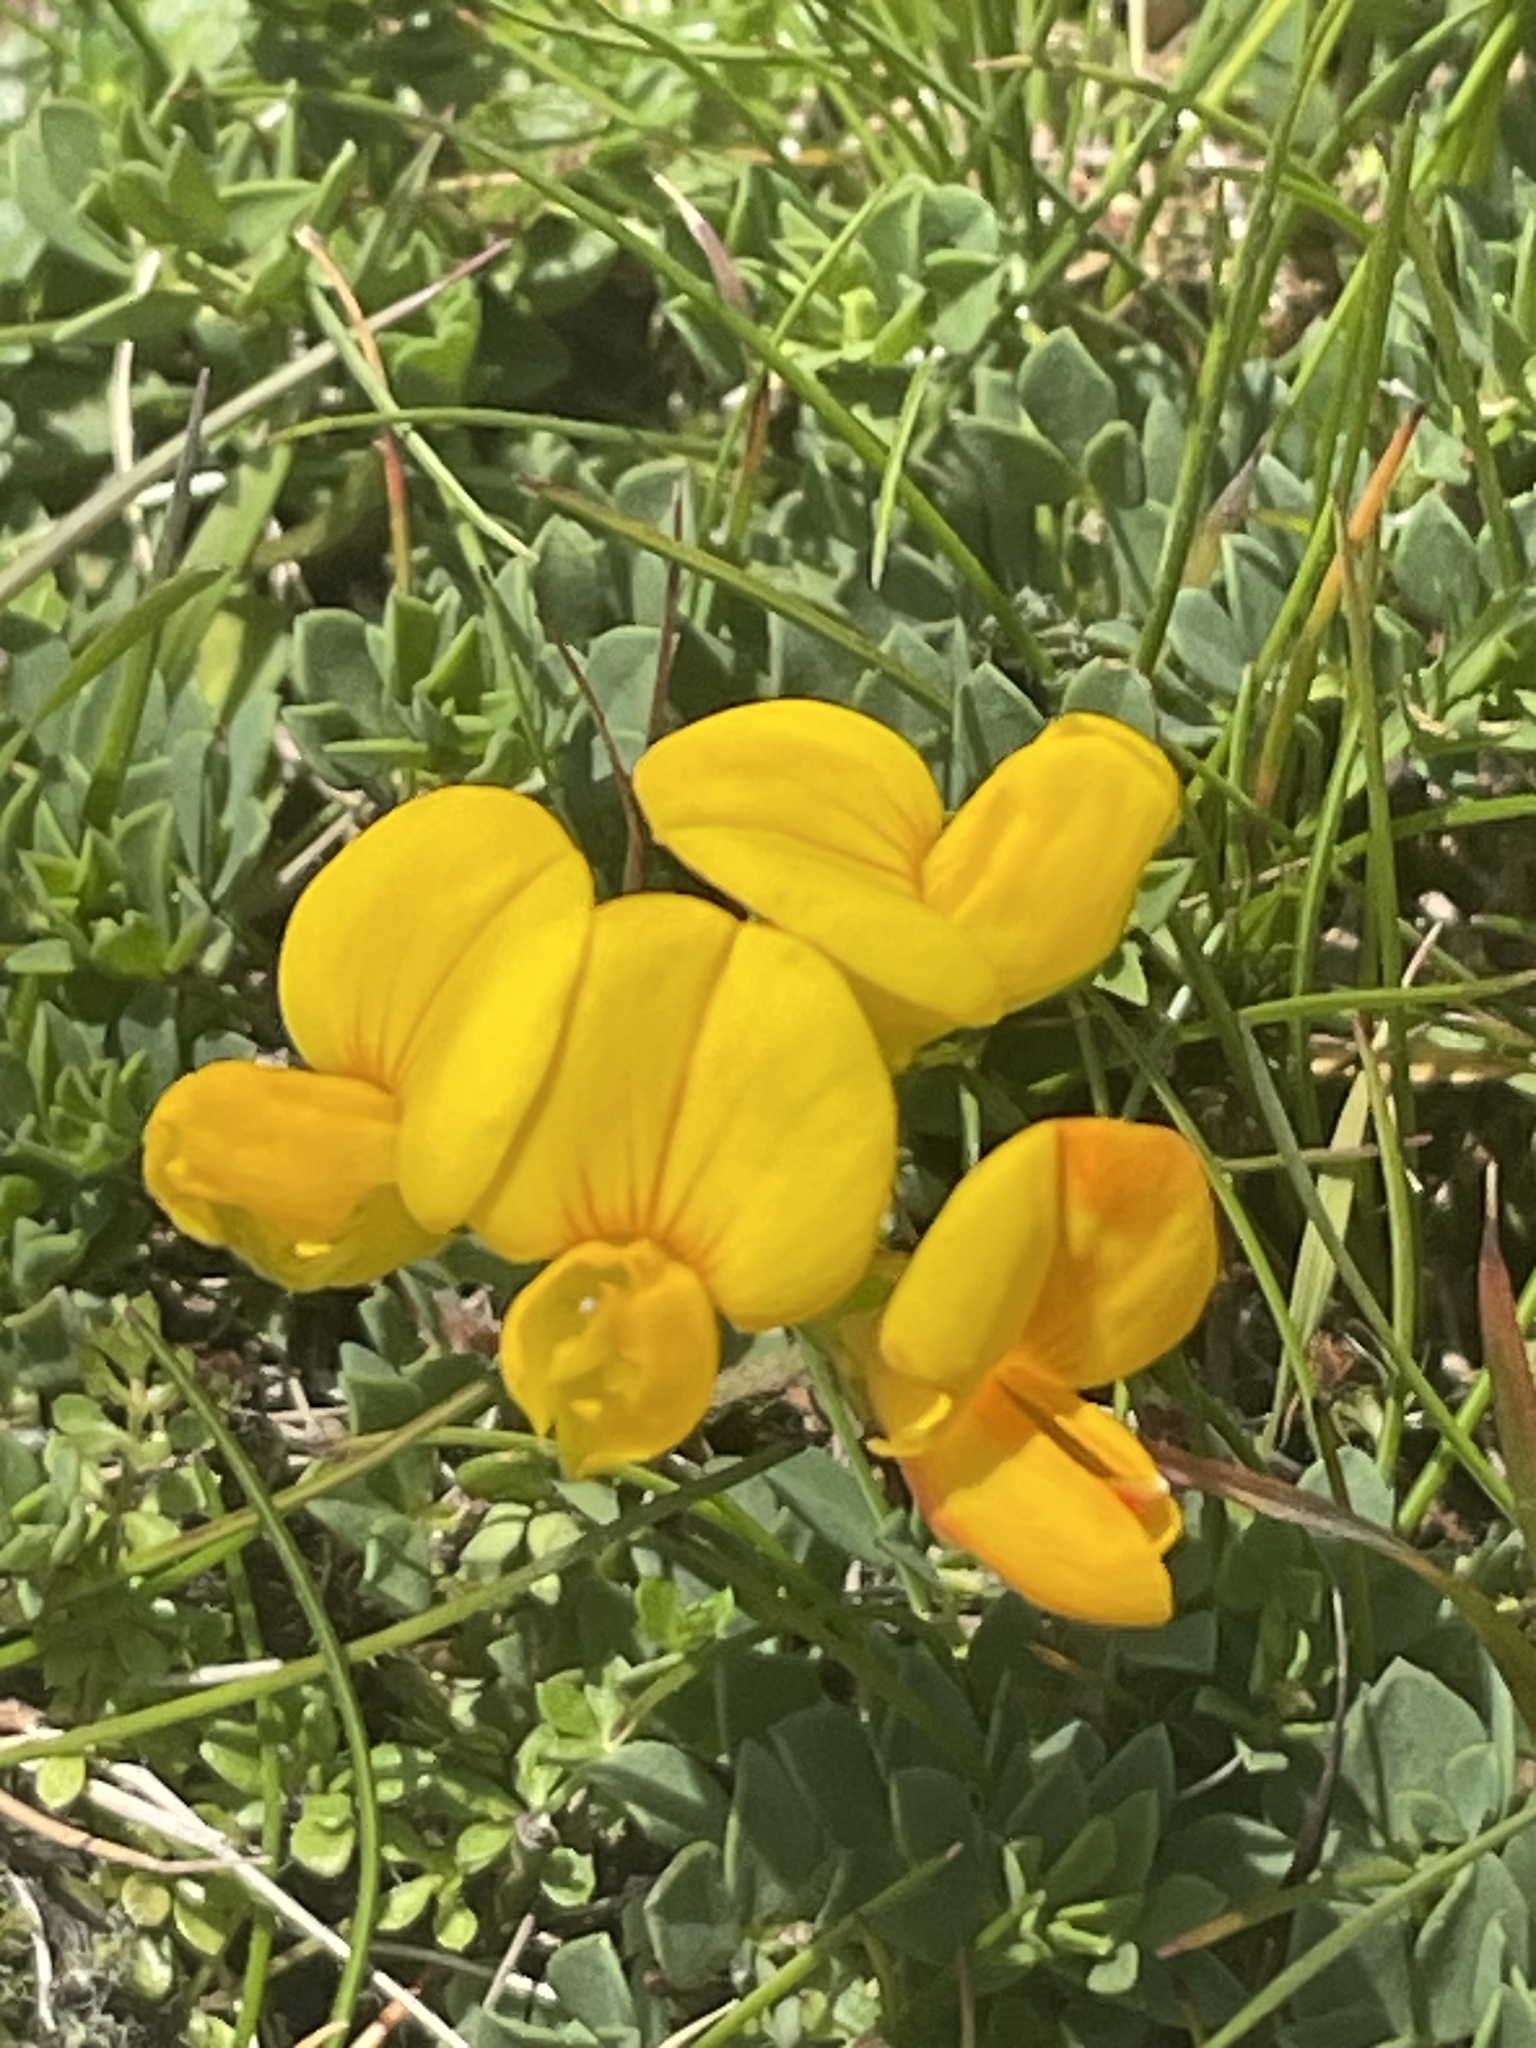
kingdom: Plantae
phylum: Tracheophyta
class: Magnoliopsida
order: Fabales
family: Fabaceae
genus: Lotus
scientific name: Lotus corniculatus
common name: Common bird's-foot-trefoil
